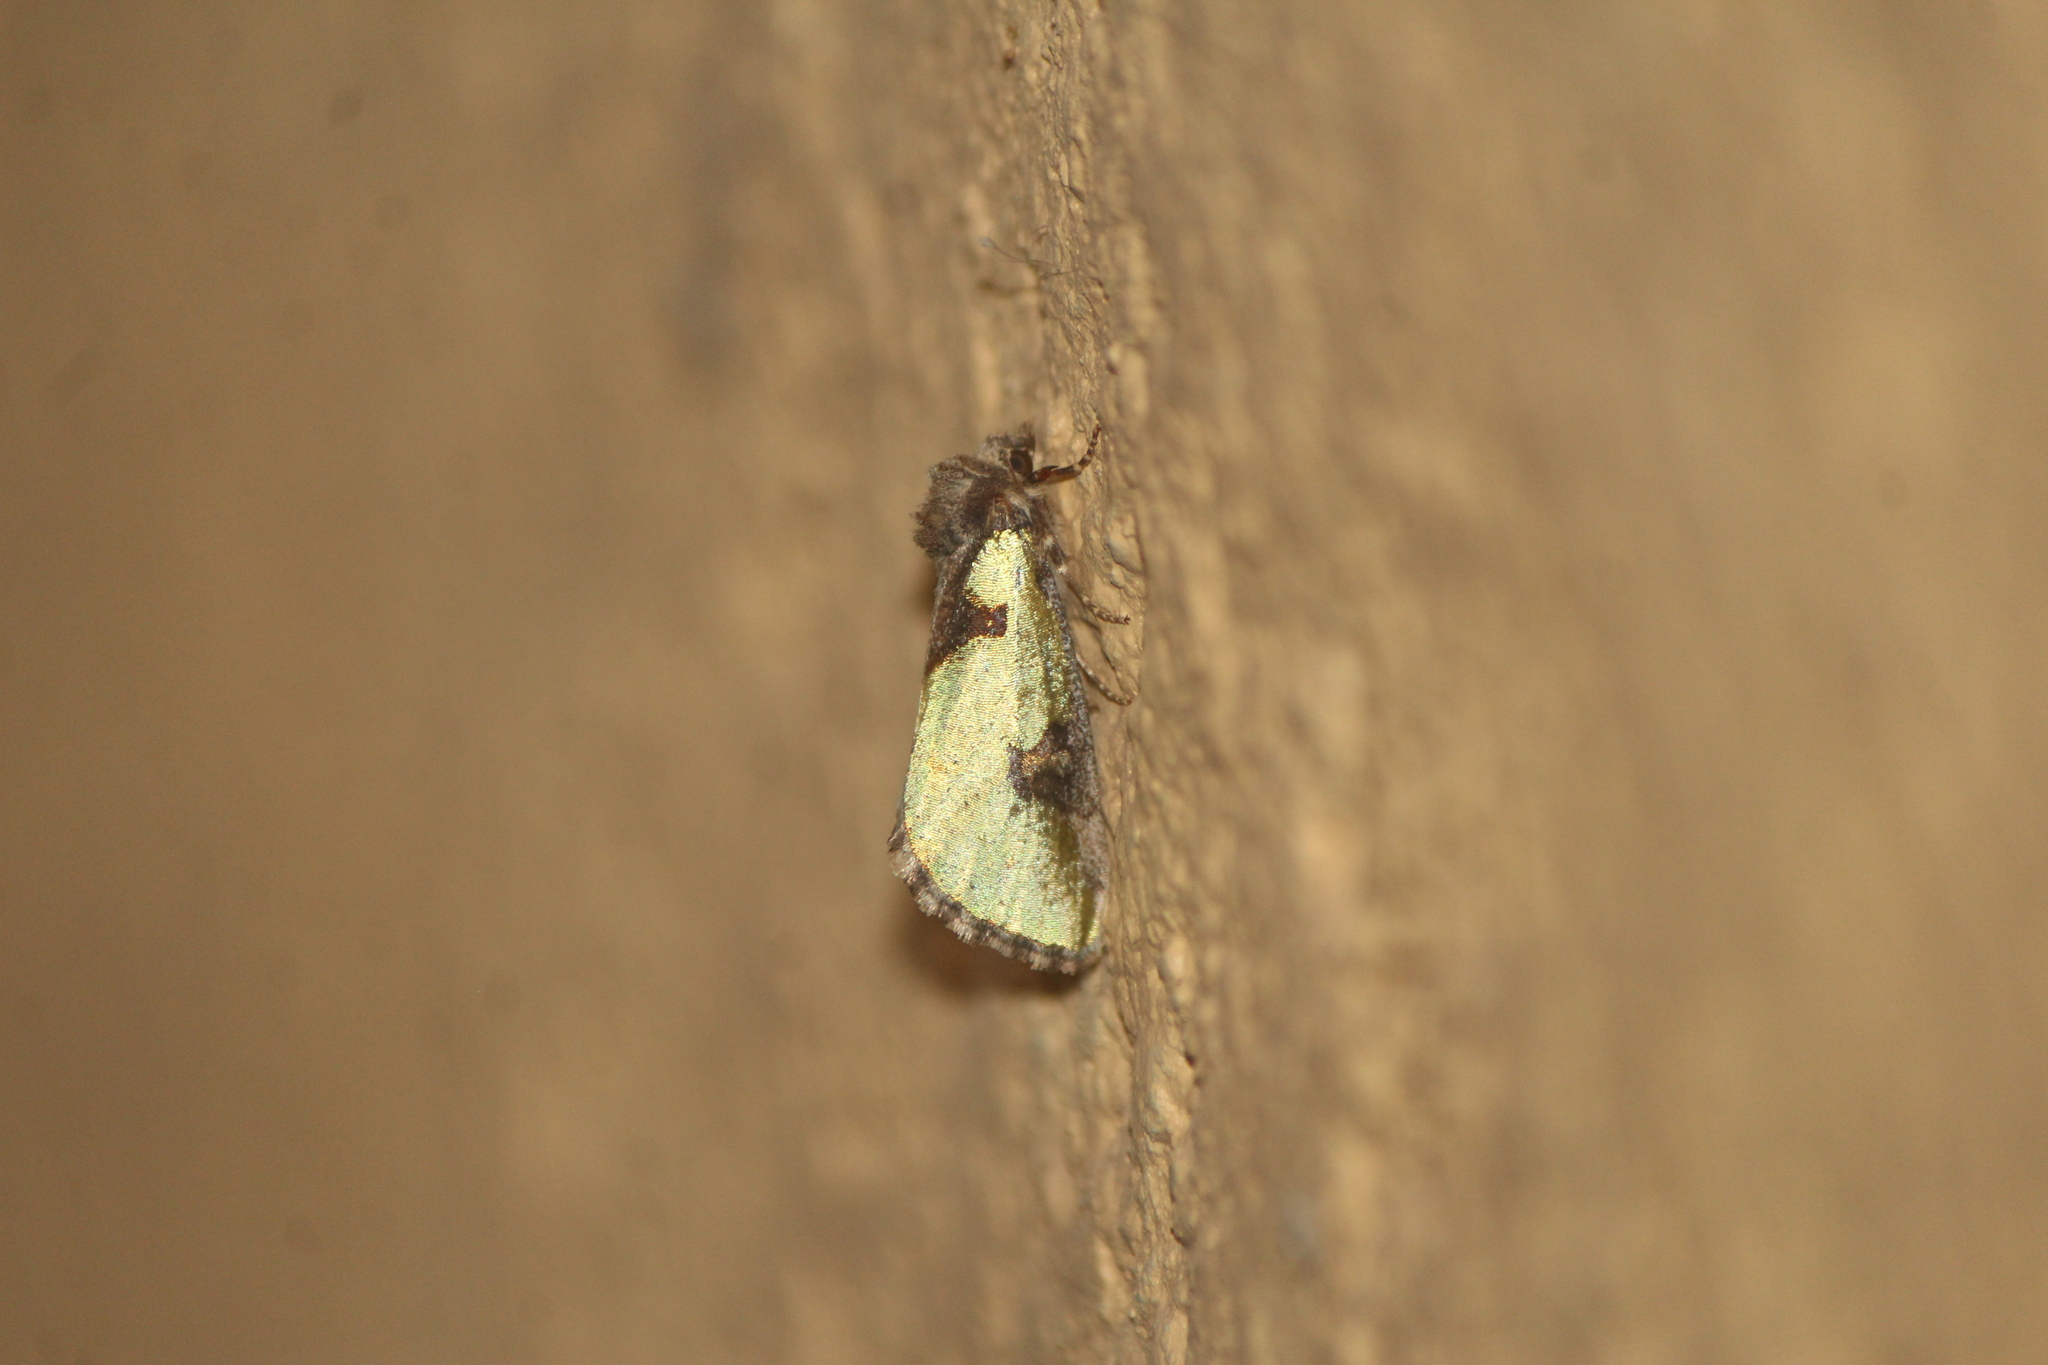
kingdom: Animalia
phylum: Arthropoda
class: Insecta
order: Lepidoptera
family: Noctuidae
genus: Chalcopasta
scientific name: Chalcopasta riandana
